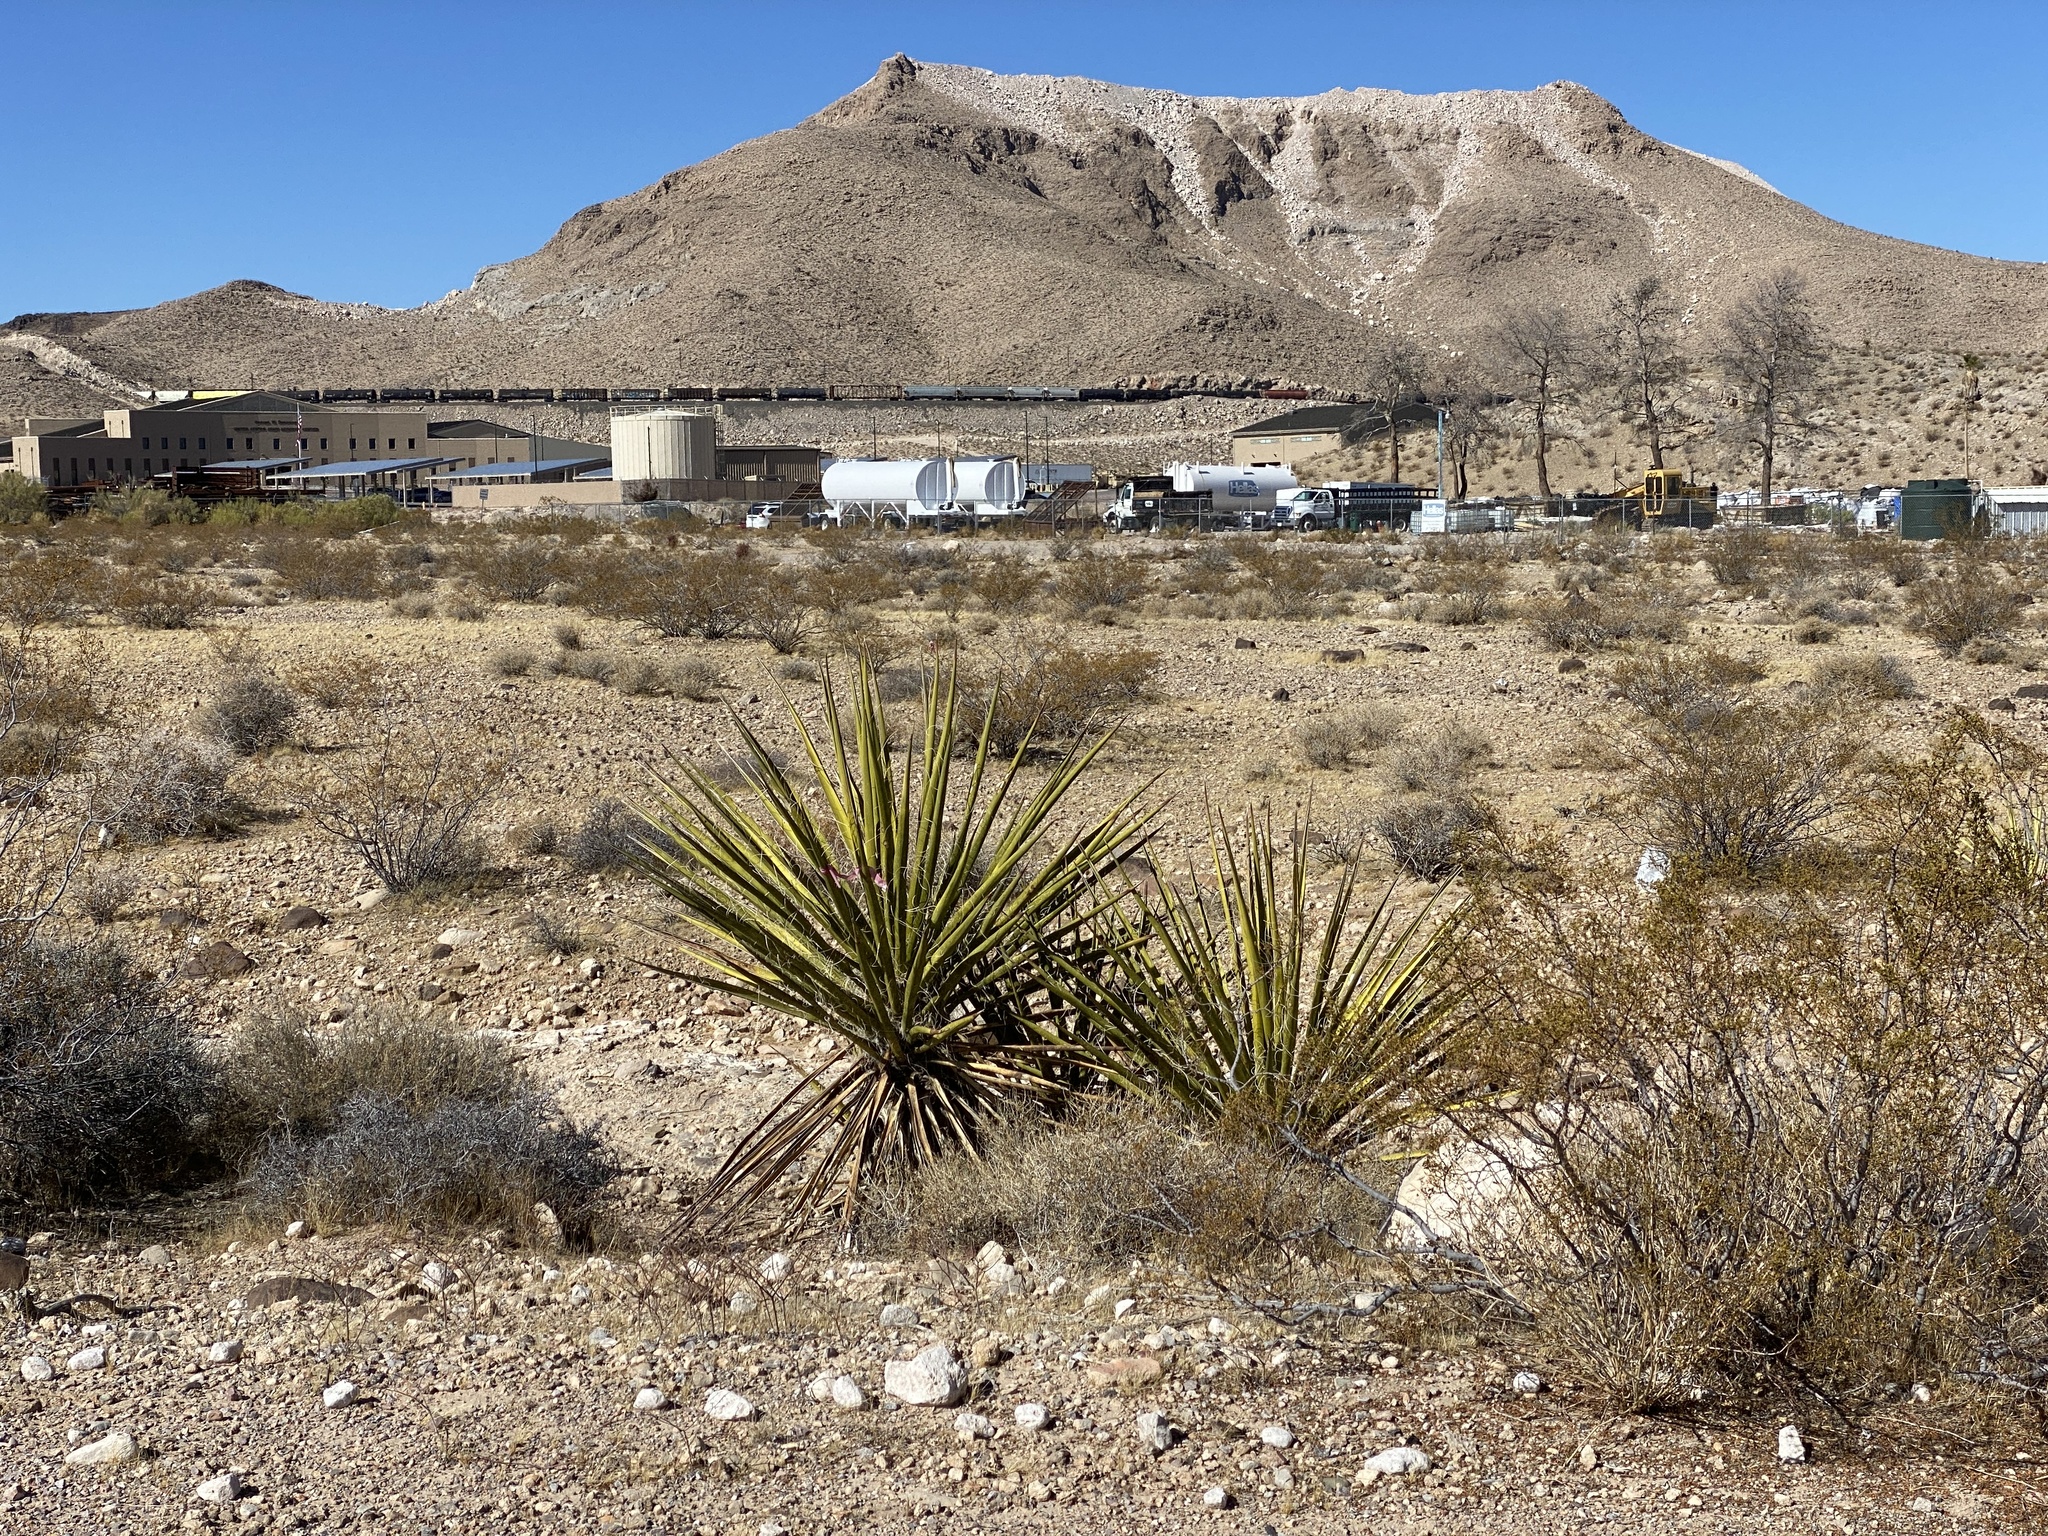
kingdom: Plantae
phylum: Tracheophyta
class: Liliopsida
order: Asparagales
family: Asparagaceae
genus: Yucca
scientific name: Yucca schidigera
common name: Mojave yucca
